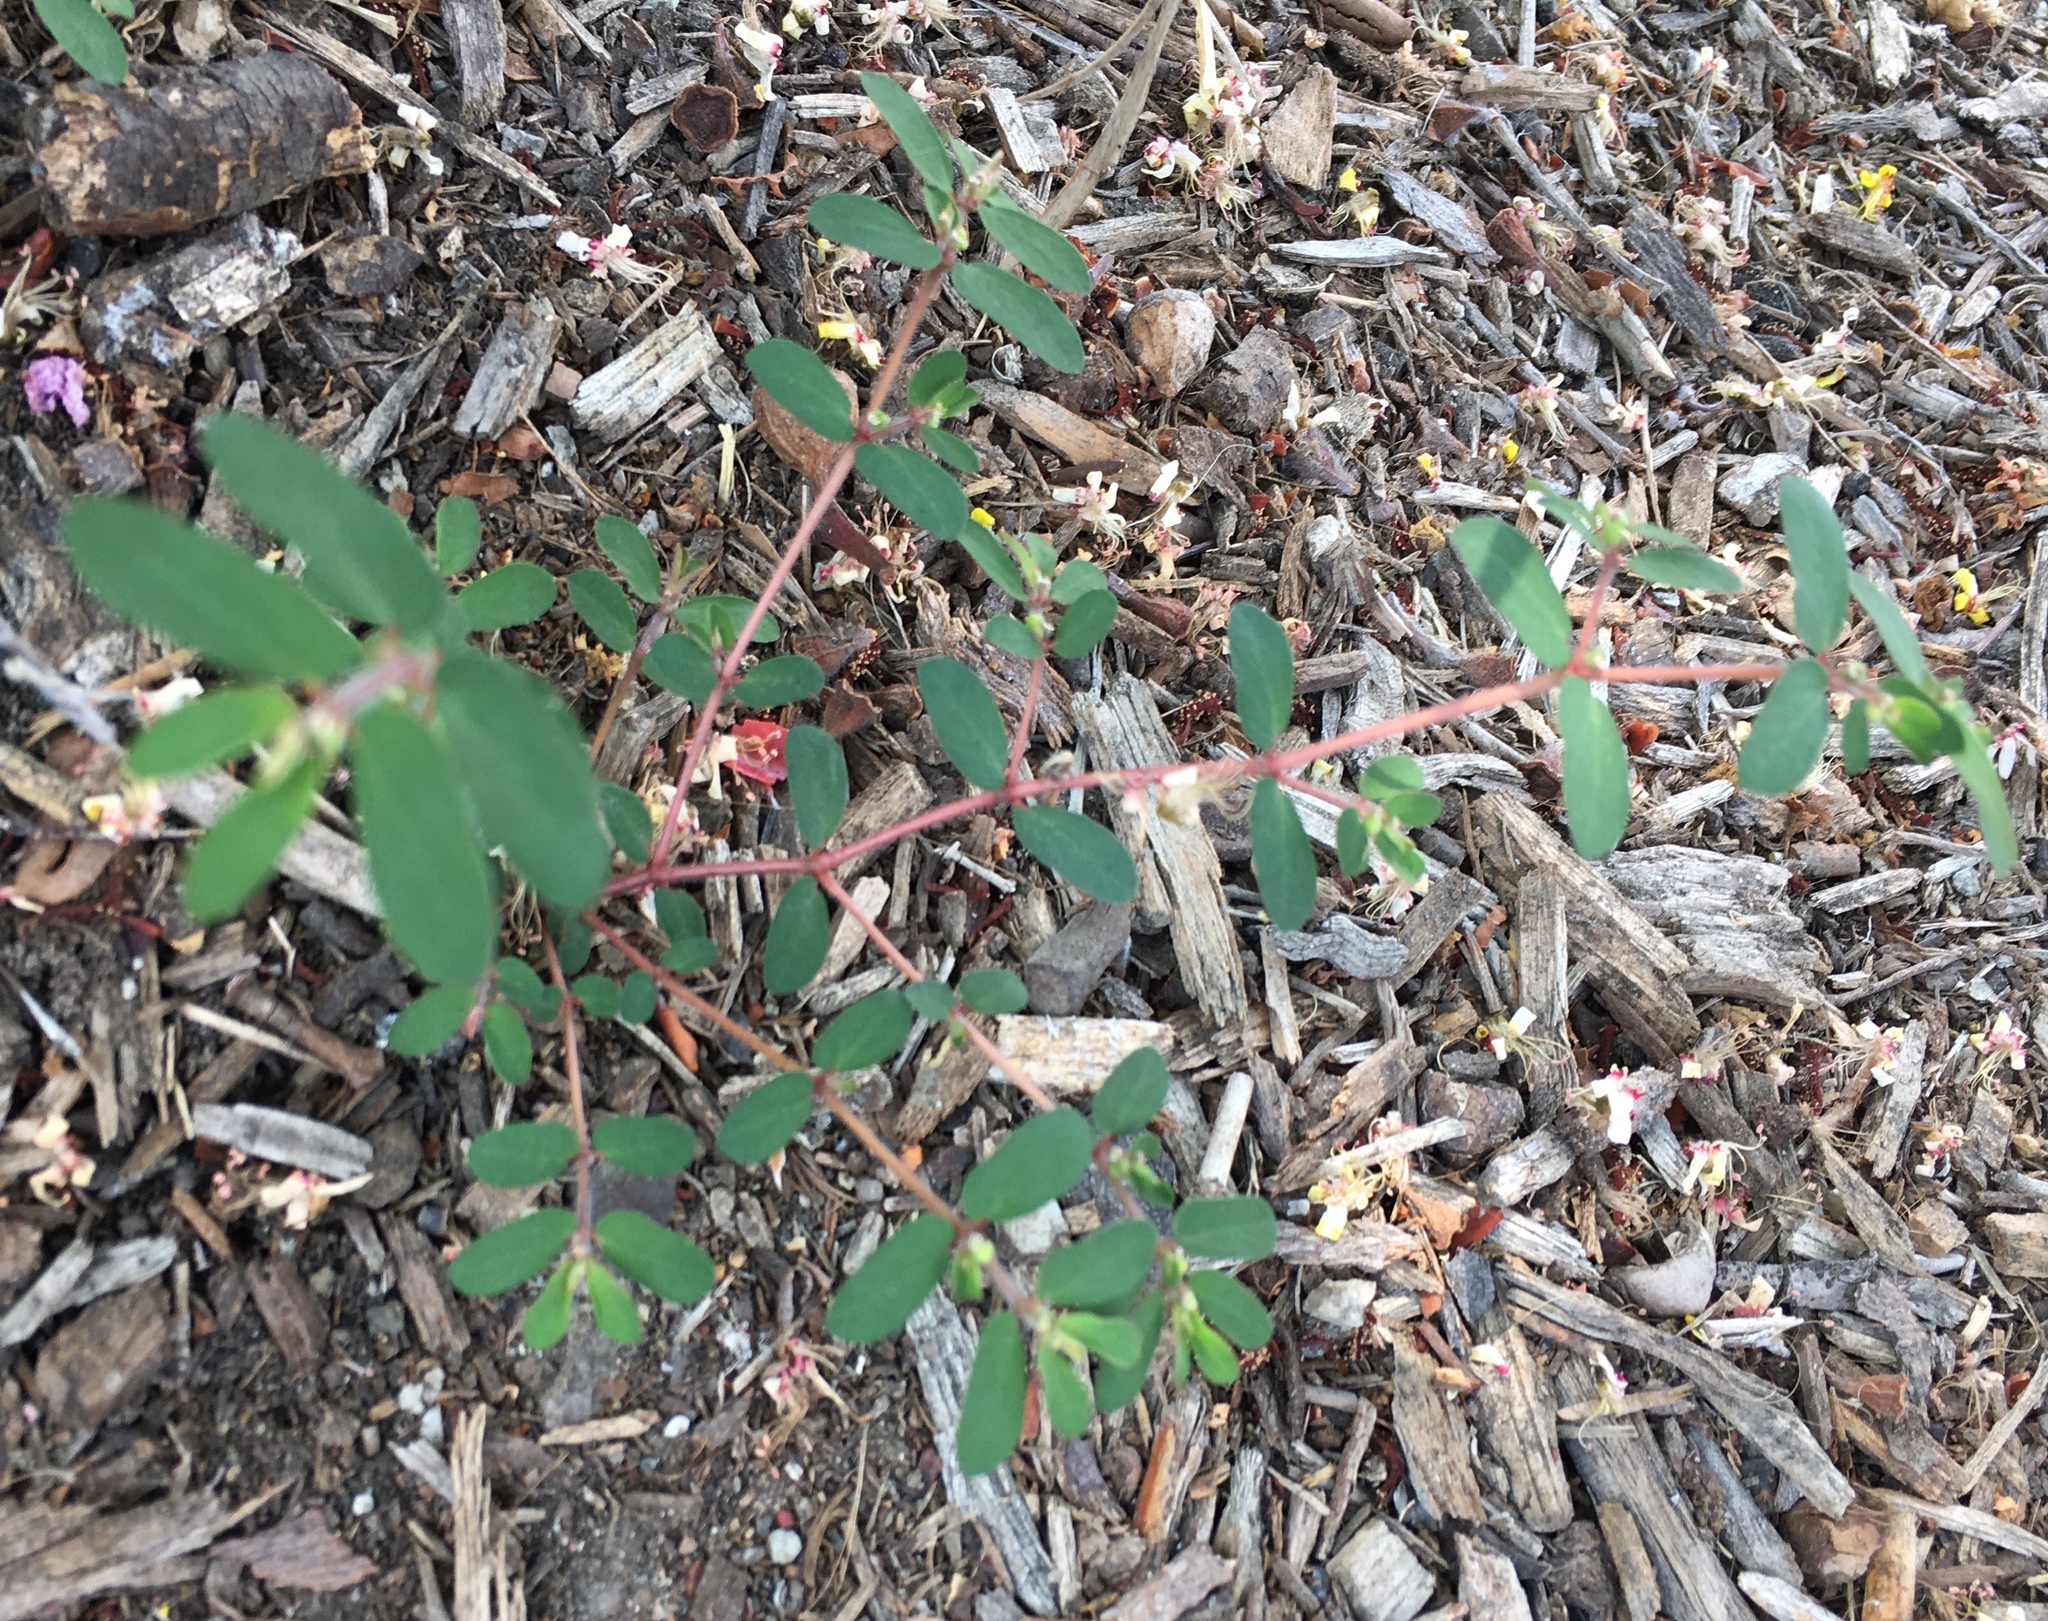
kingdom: Plantae
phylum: Tracheophyta
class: Magnoliopsida
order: Malpighiales
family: Euphorbiaceae
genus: Euphorbia
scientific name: Euphorbia maculata
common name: Spotted spurge
